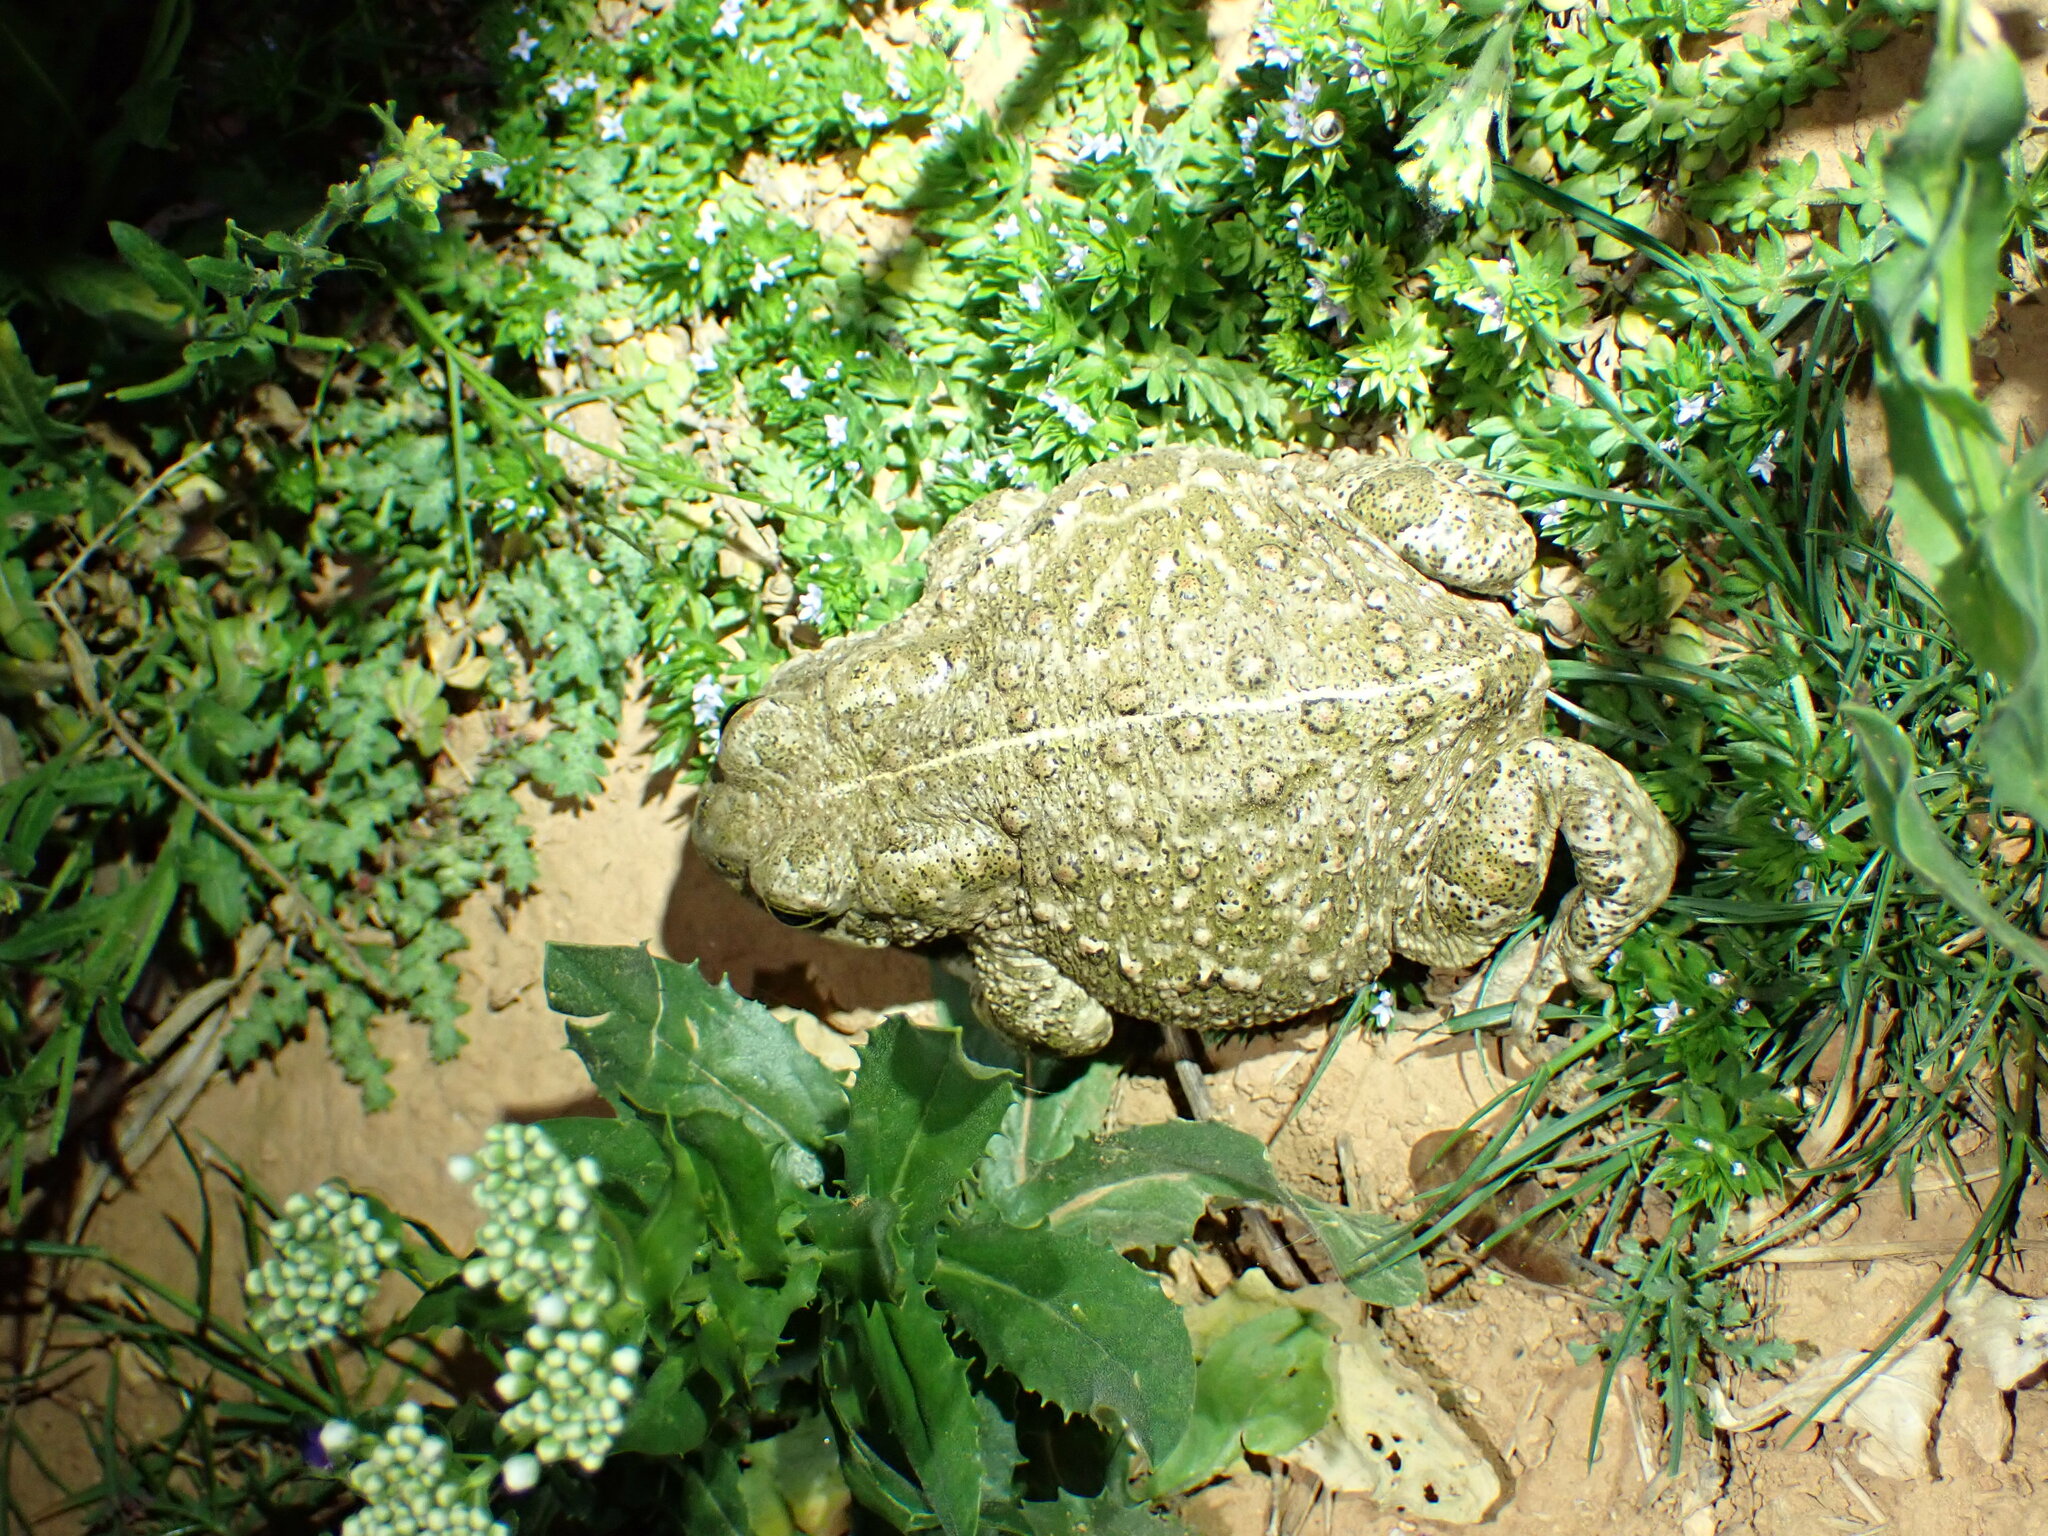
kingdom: Animalia
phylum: Chordata
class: Amphibia
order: Anura
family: Bufonidae
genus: Epidalea
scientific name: Epidalea calamita
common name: Natterjack toad
